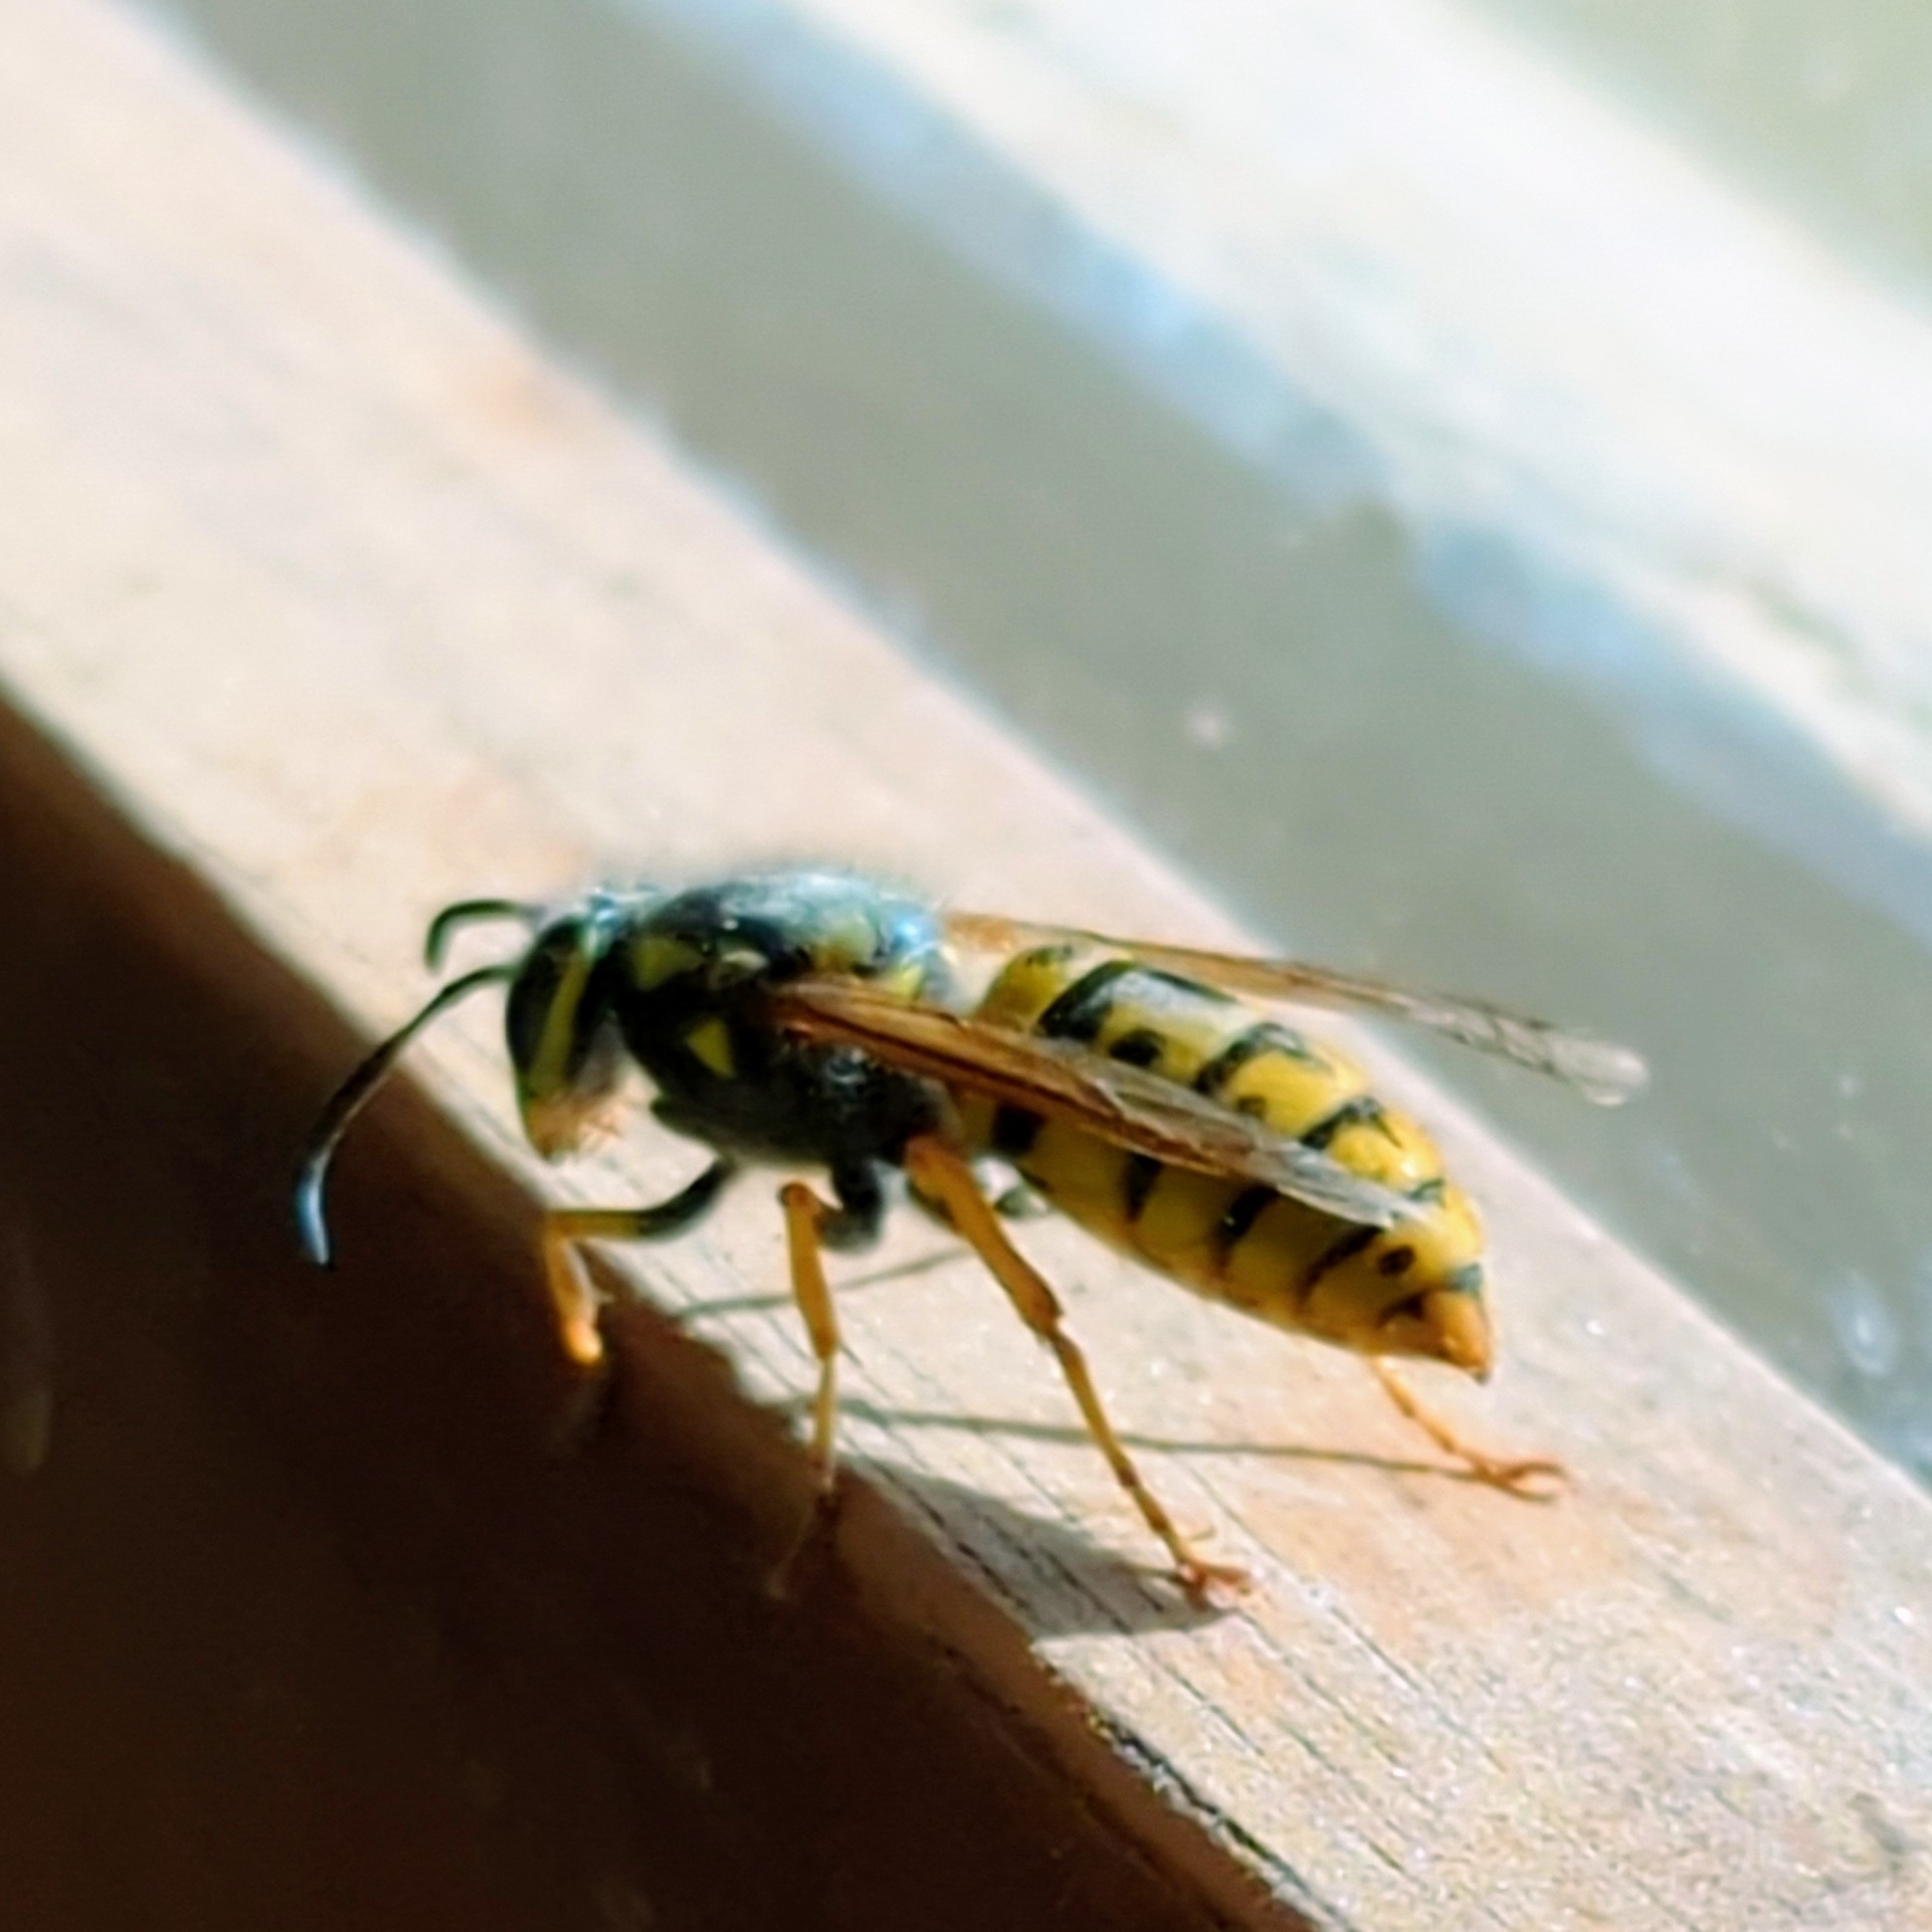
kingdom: Animalia
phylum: Arthropoda
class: Insecta
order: Hymenoptera
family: Vespidae
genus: Vespula
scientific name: Vespula germanica
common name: German wasp
